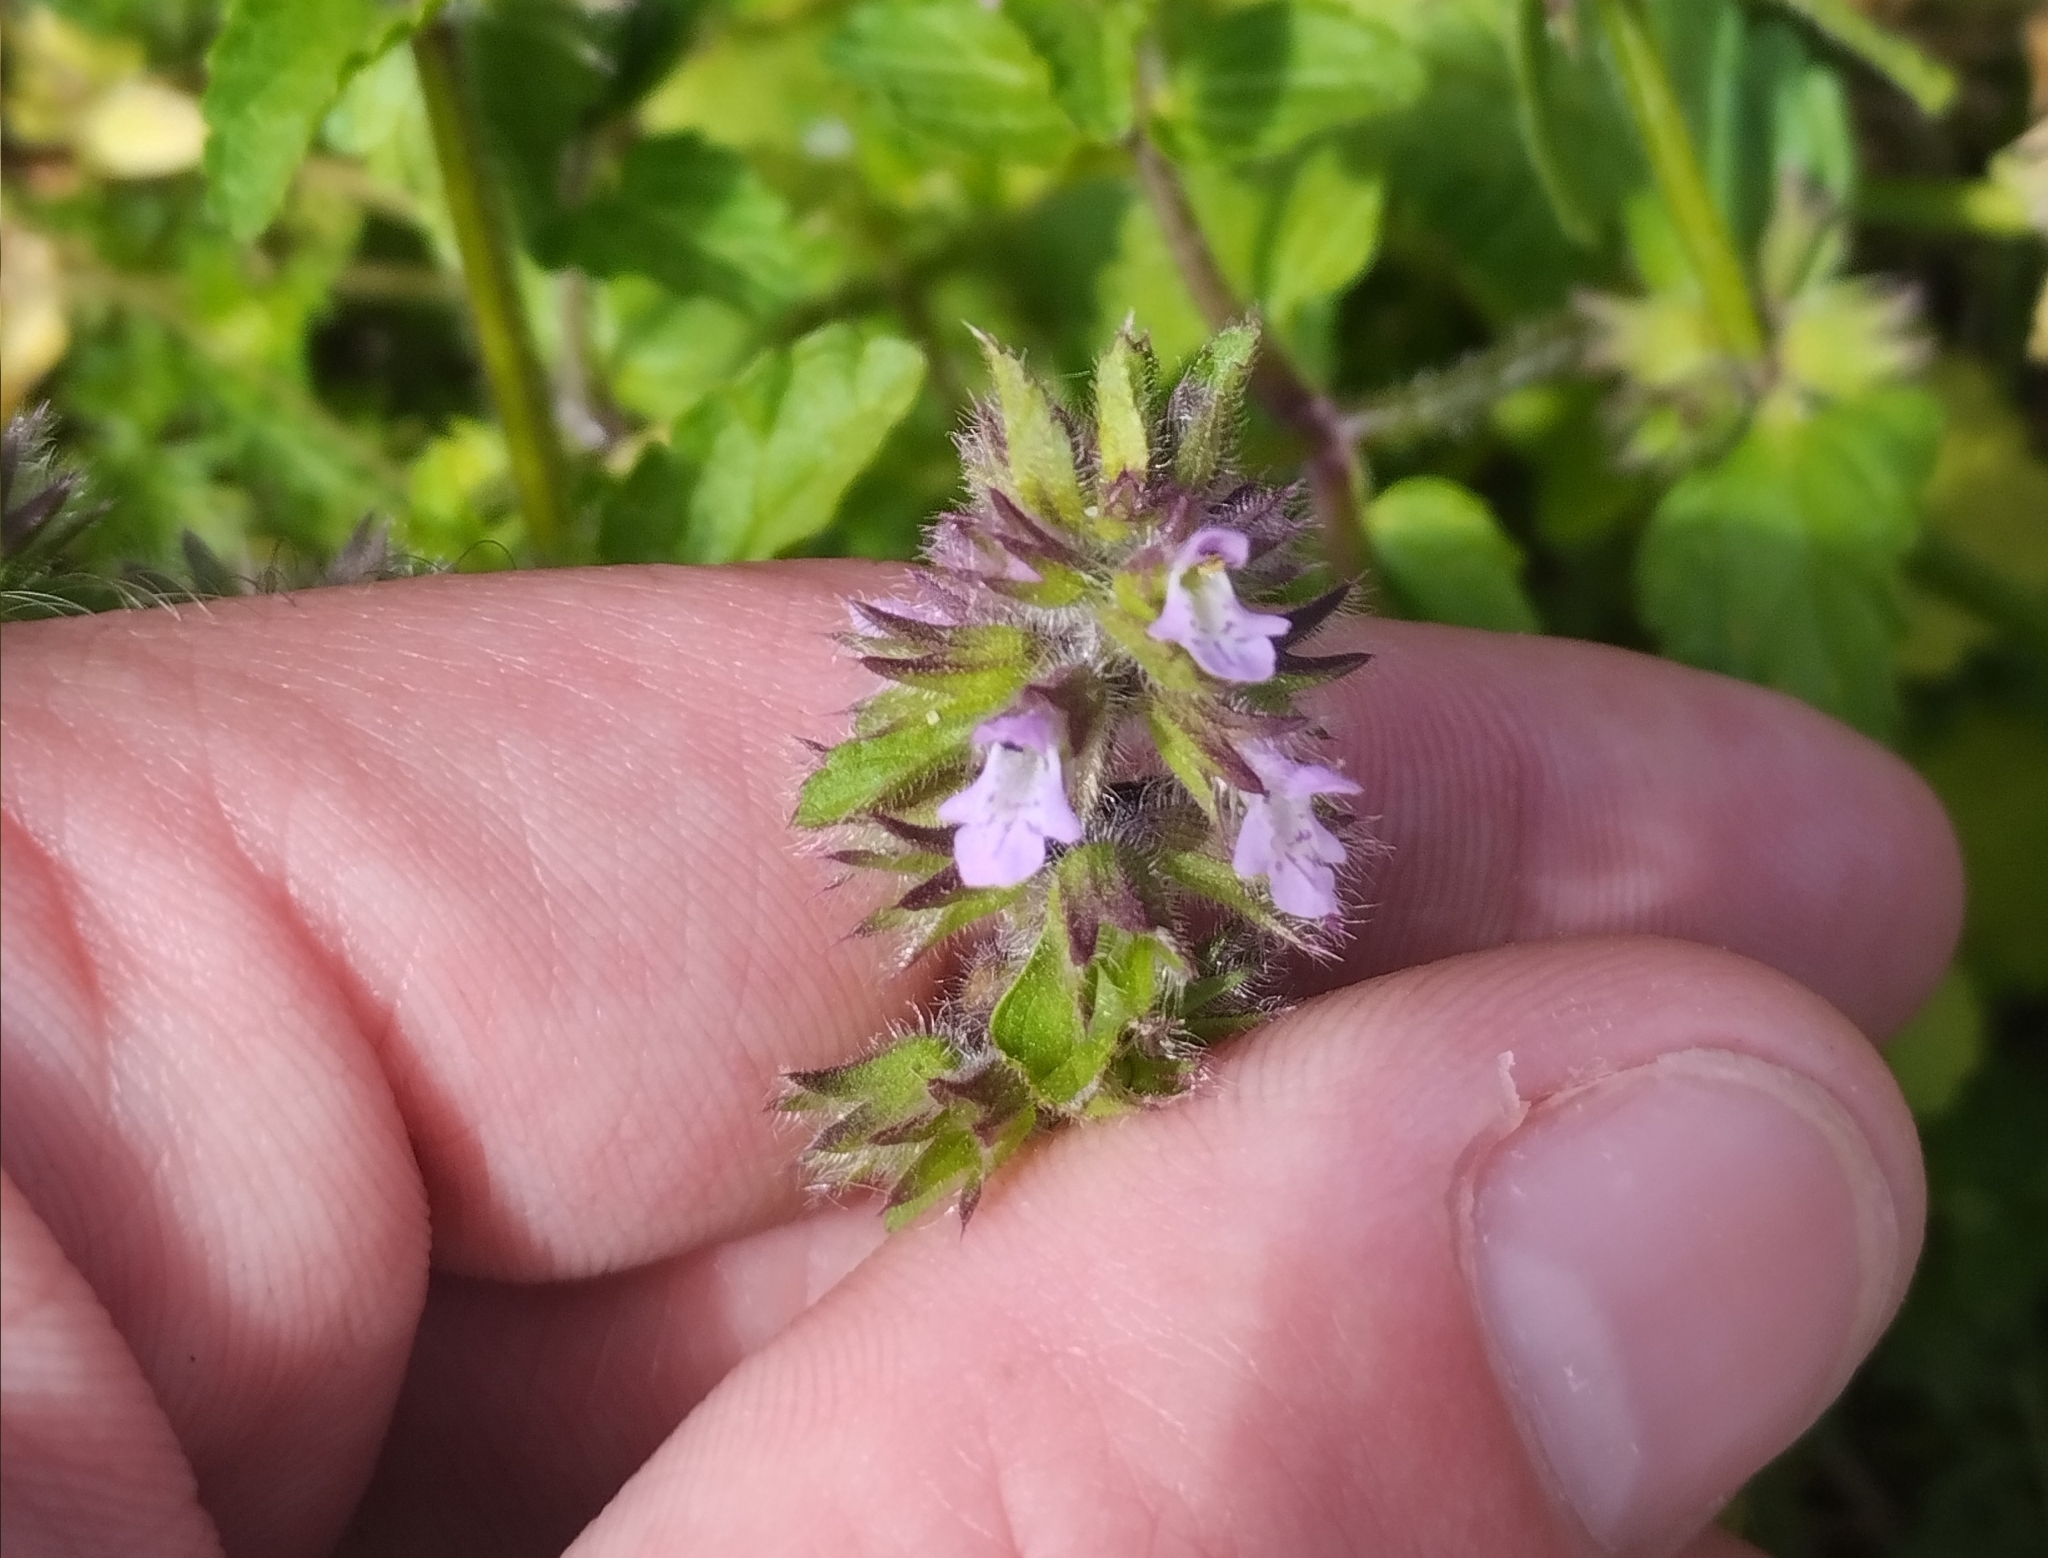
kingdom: Plantae
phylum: Tracheophyta
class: Magnoliopsida
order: Lamiales
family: Lamiaceae
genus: Stachys
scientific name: Stachys arvensis
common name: Field woundwort
